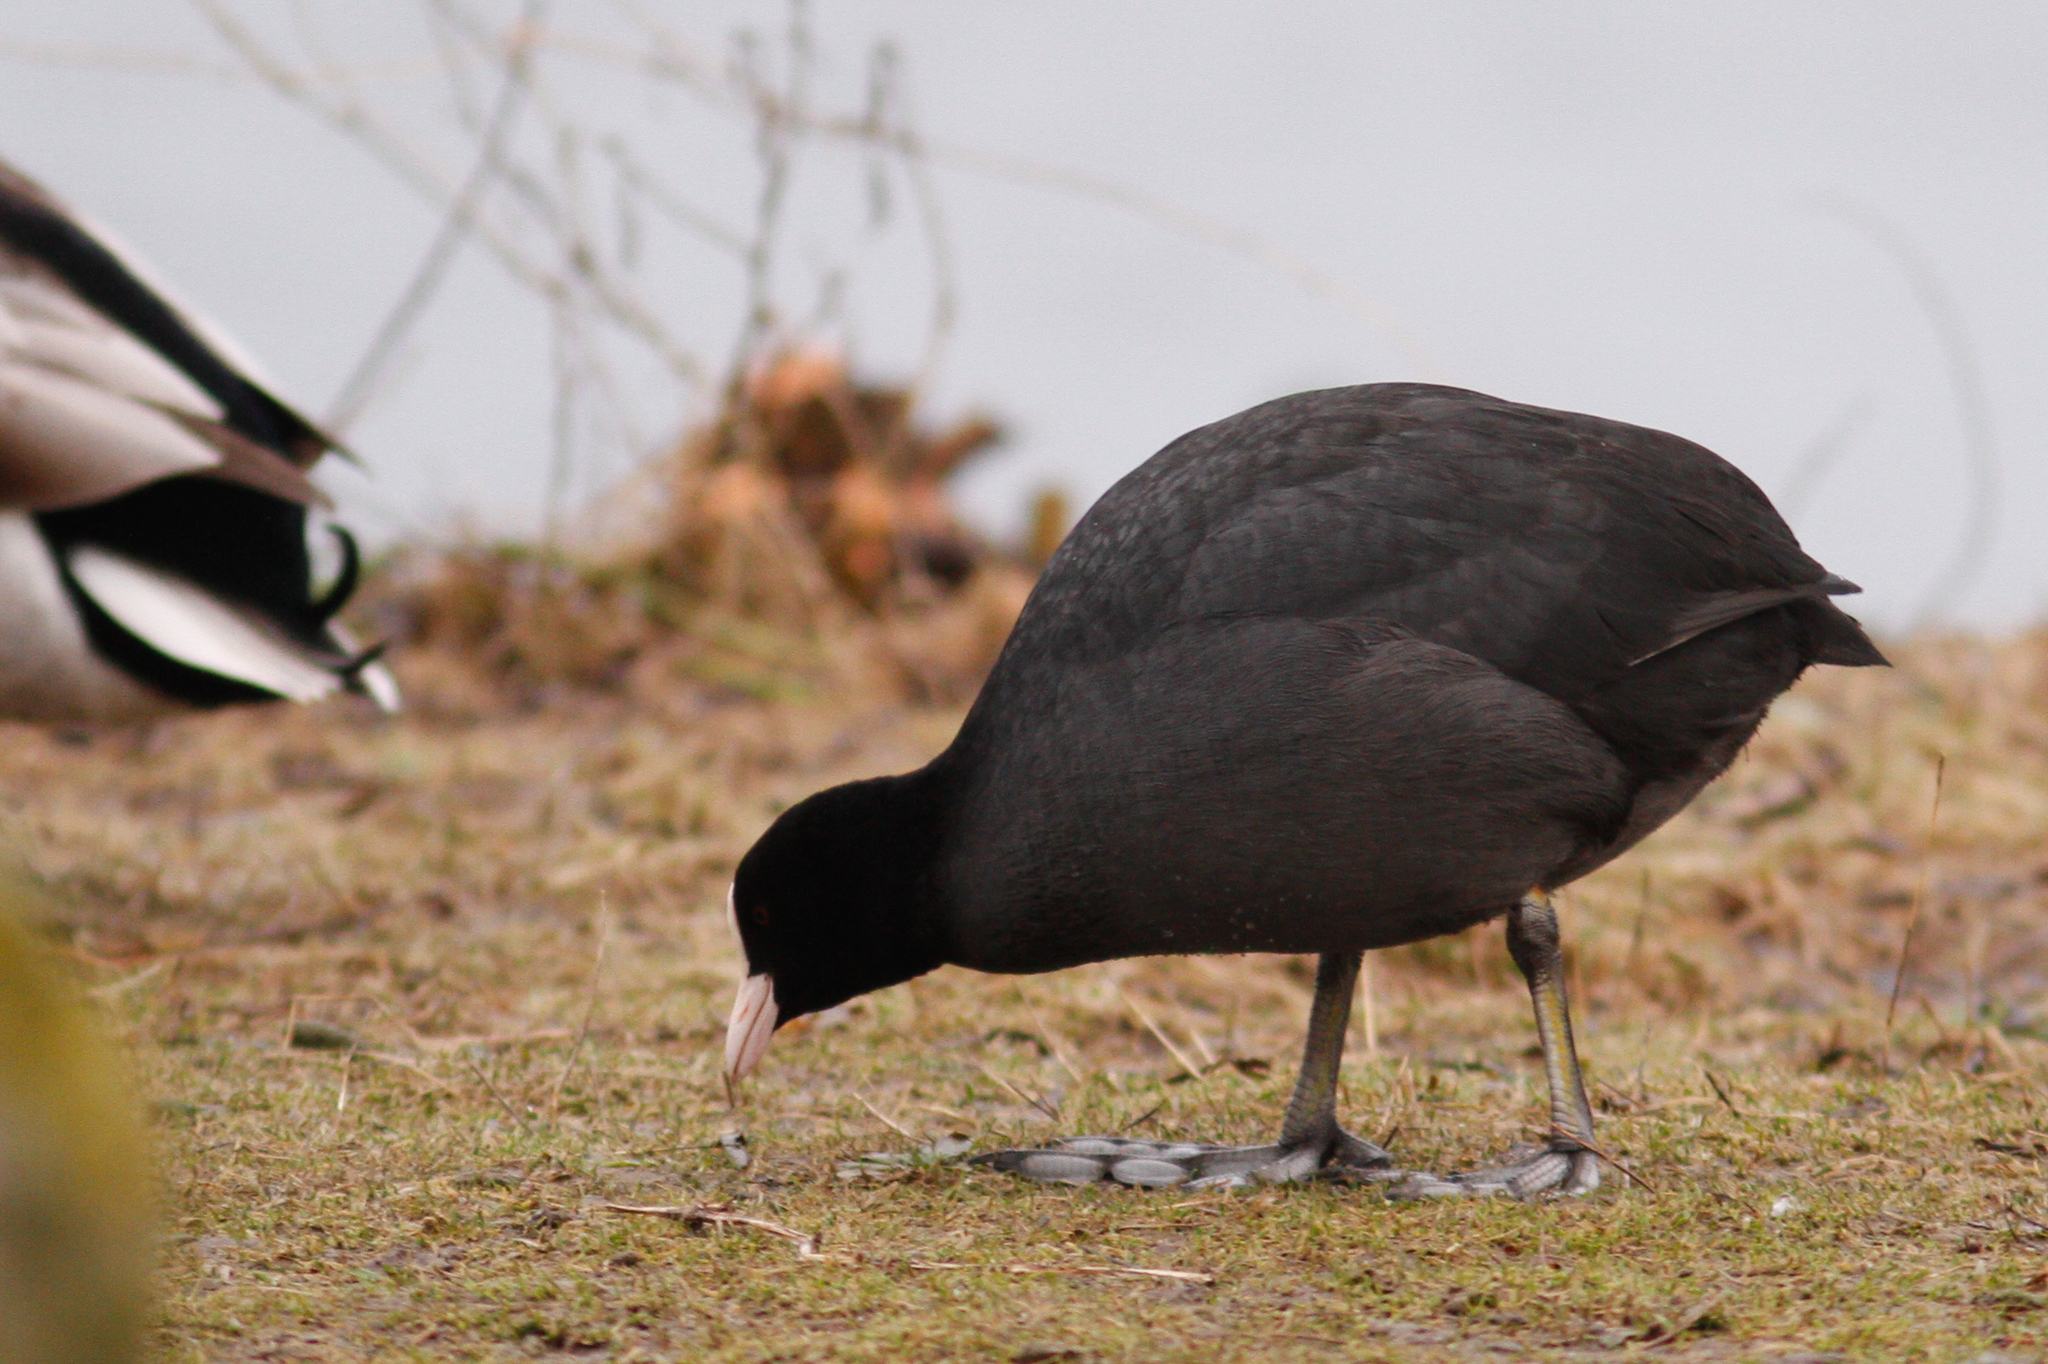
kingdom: Animalia
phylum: Chordata
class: Aves
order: Gruiformes
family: Rallidae
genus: Fulica
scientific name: Fulica atra
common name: Eurasian coot
